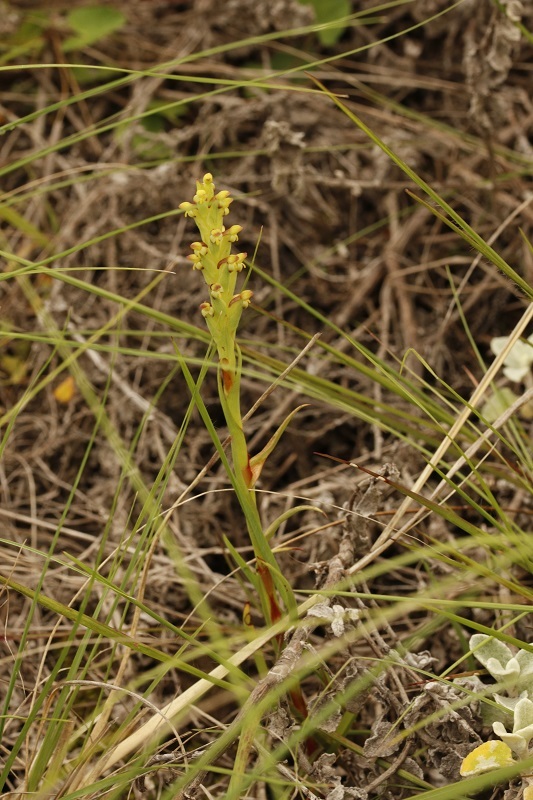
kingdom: Plantae
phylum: Tracheophyta
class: Liliopsida
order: Asparagales
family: Orchidaceae
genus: Disa
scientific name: Disa bracteata
